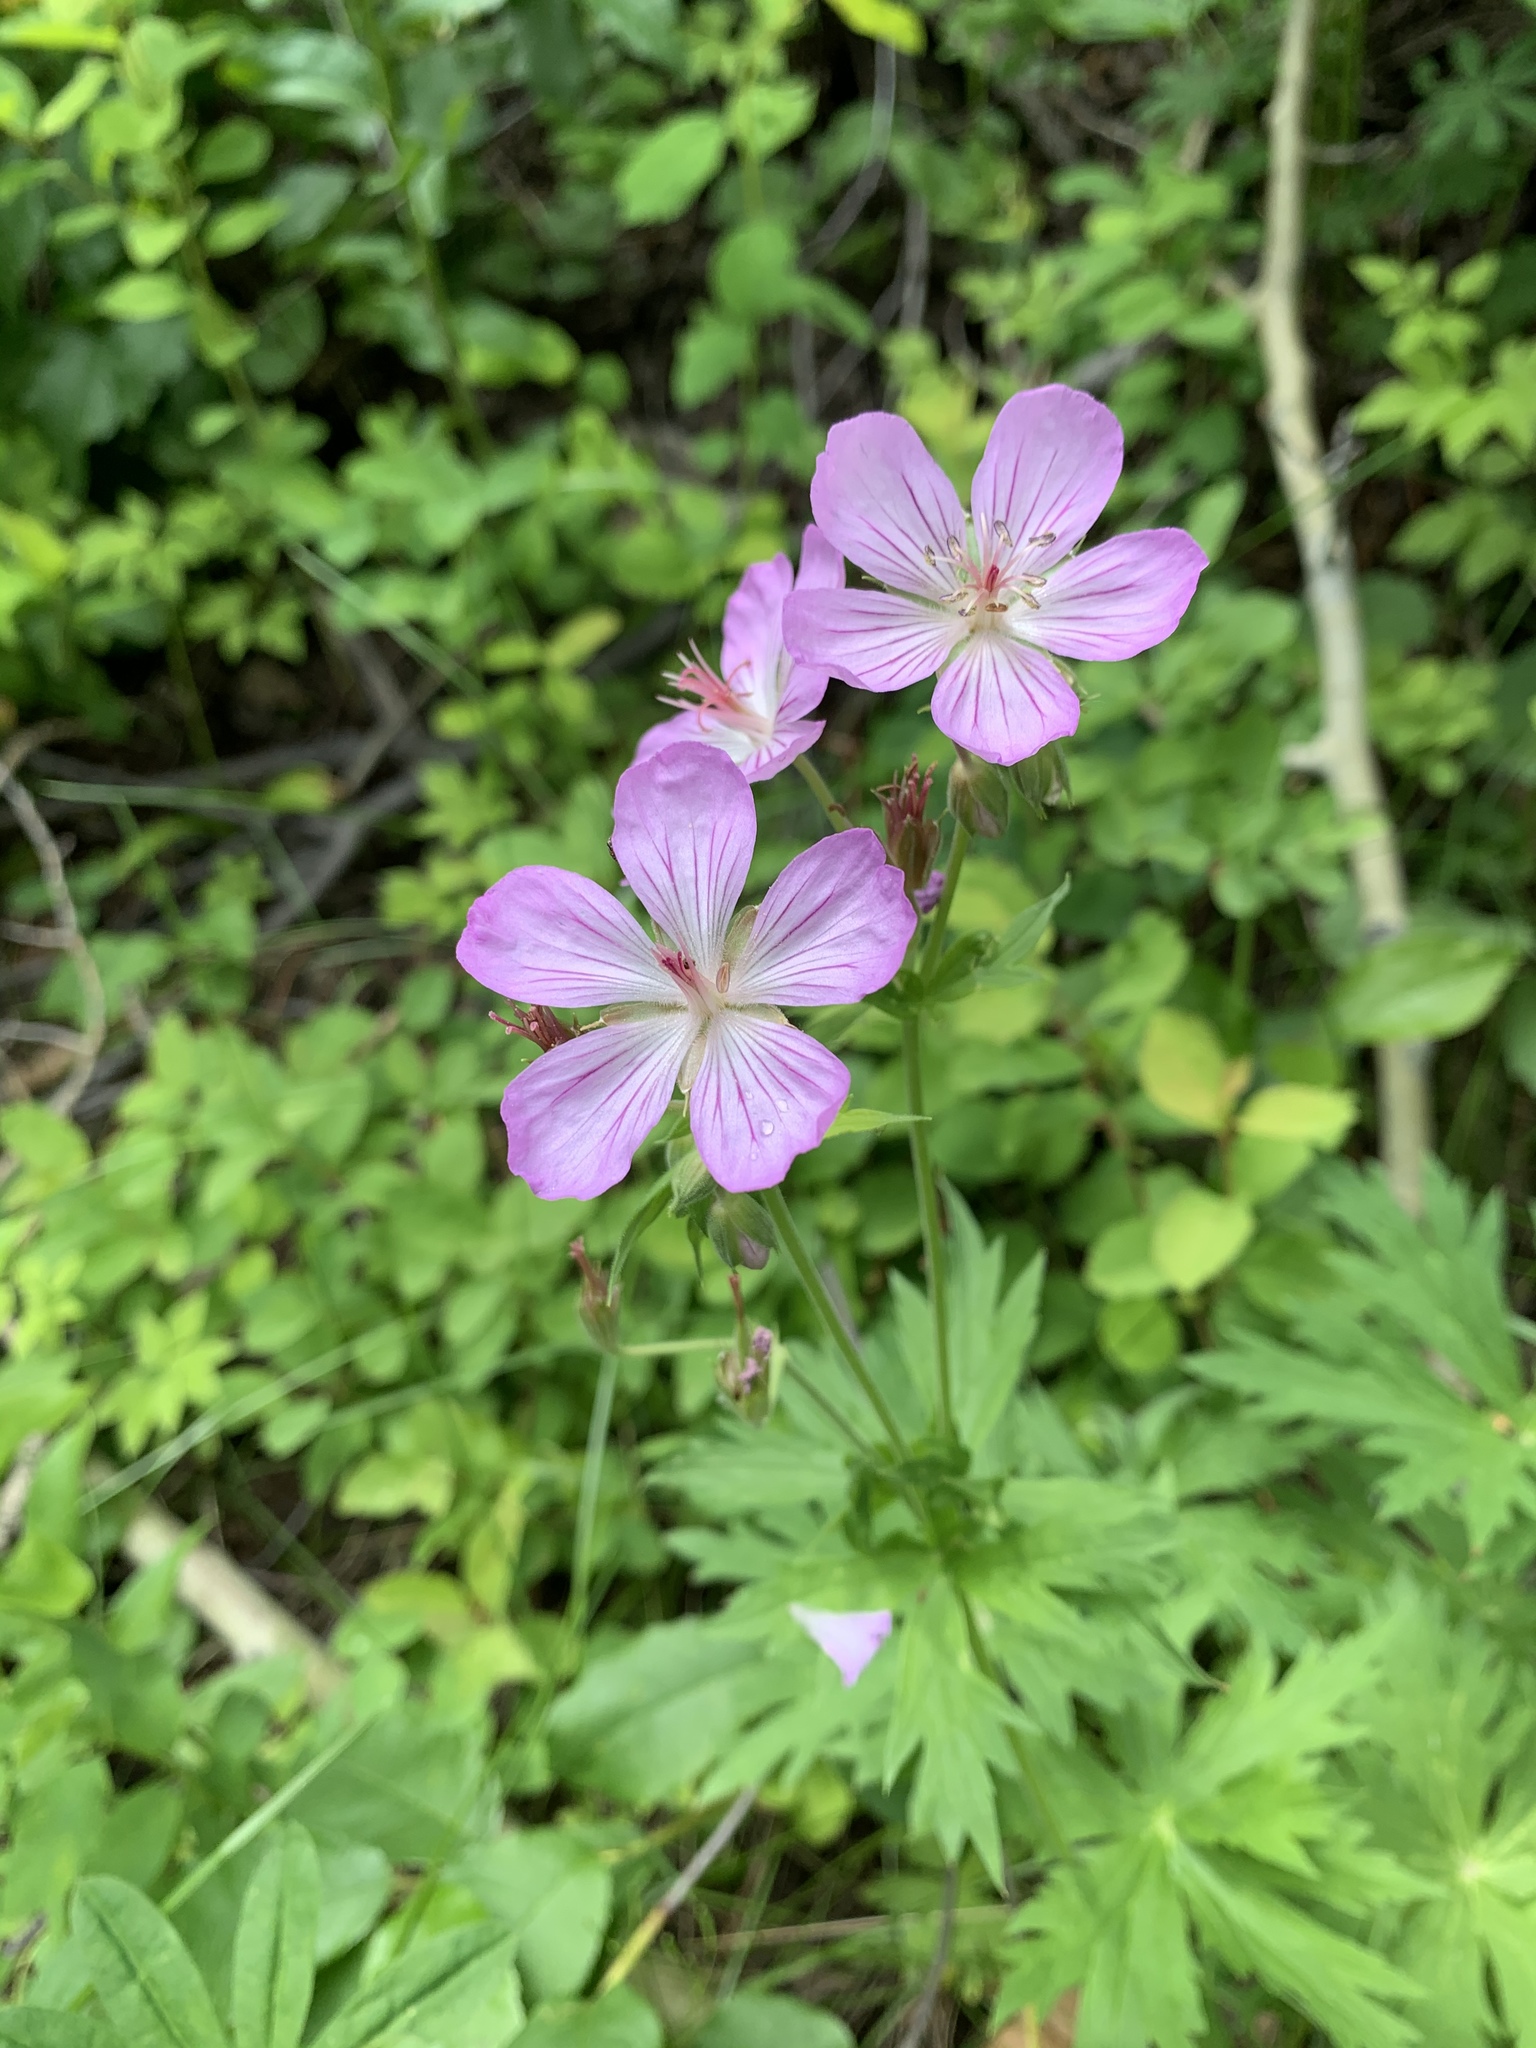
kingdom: Plantae
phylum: Tracheophyta
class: Magnoliopsida
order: Geraniales
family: Geraniaceae
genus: Geranium
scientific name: Geranium viscosissimum
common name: Purple geranium
